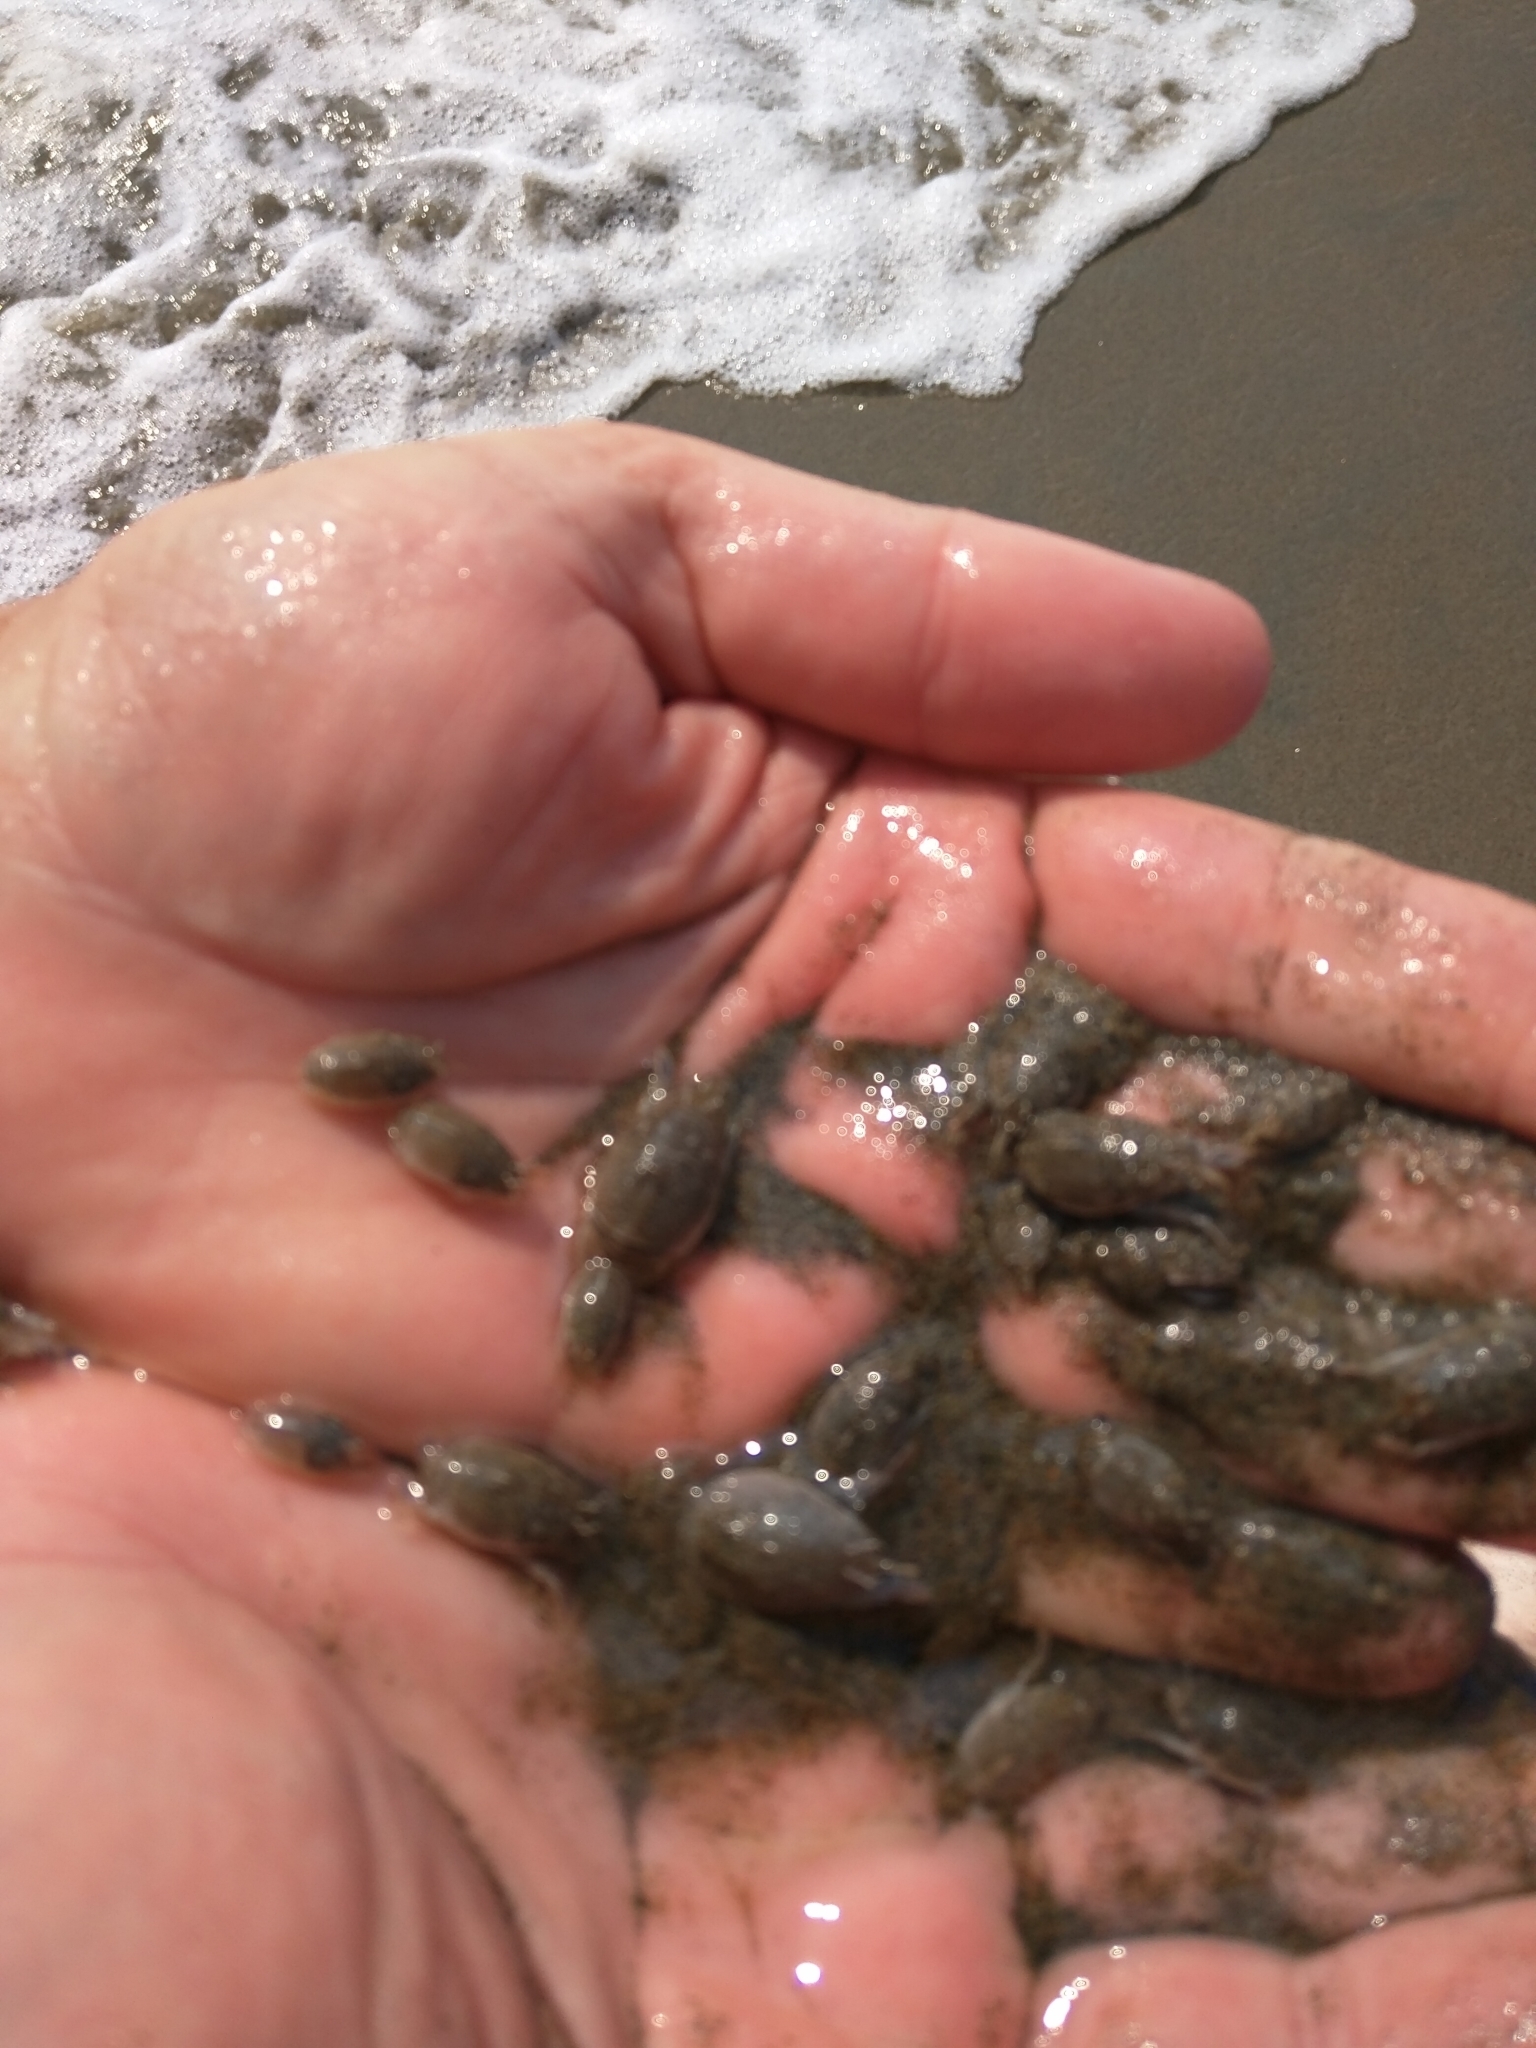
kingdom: Animalia
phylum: Arthropoda
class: Malacostraca
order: Decapoda
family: Hippidae
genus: Emerita
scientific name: Emerita analoga
